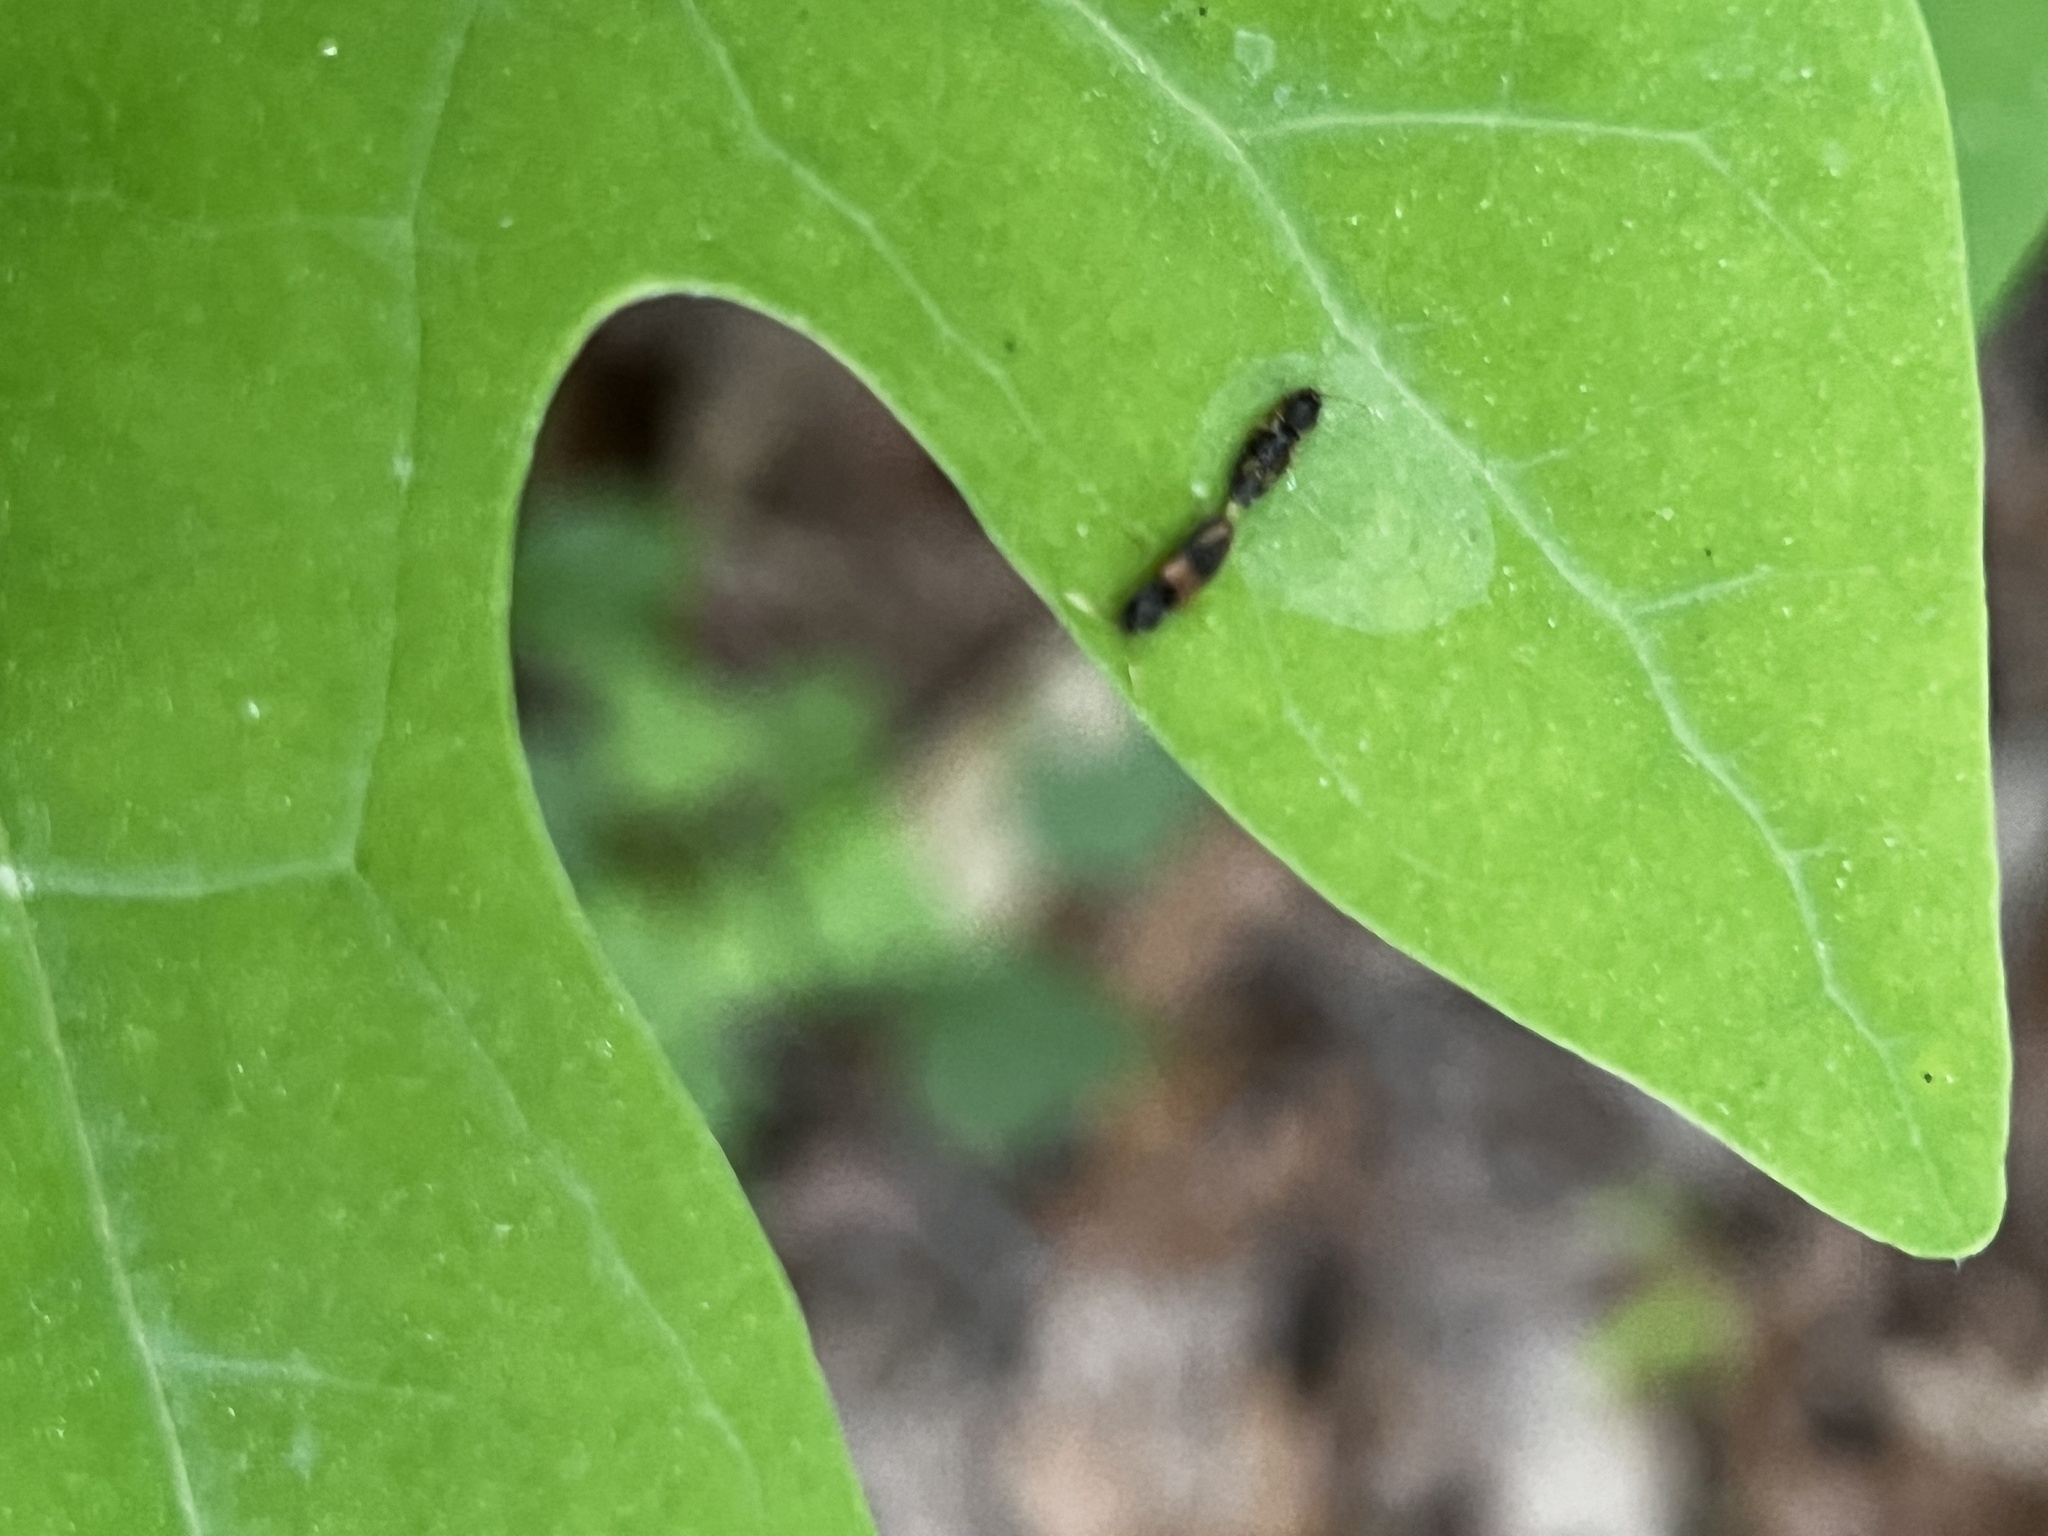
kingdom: Animalia
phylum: Arthropoda
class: Insecta
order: Coleoptera
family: Elateridae
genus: Horistonotus
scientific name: Horistonotus curiatus
